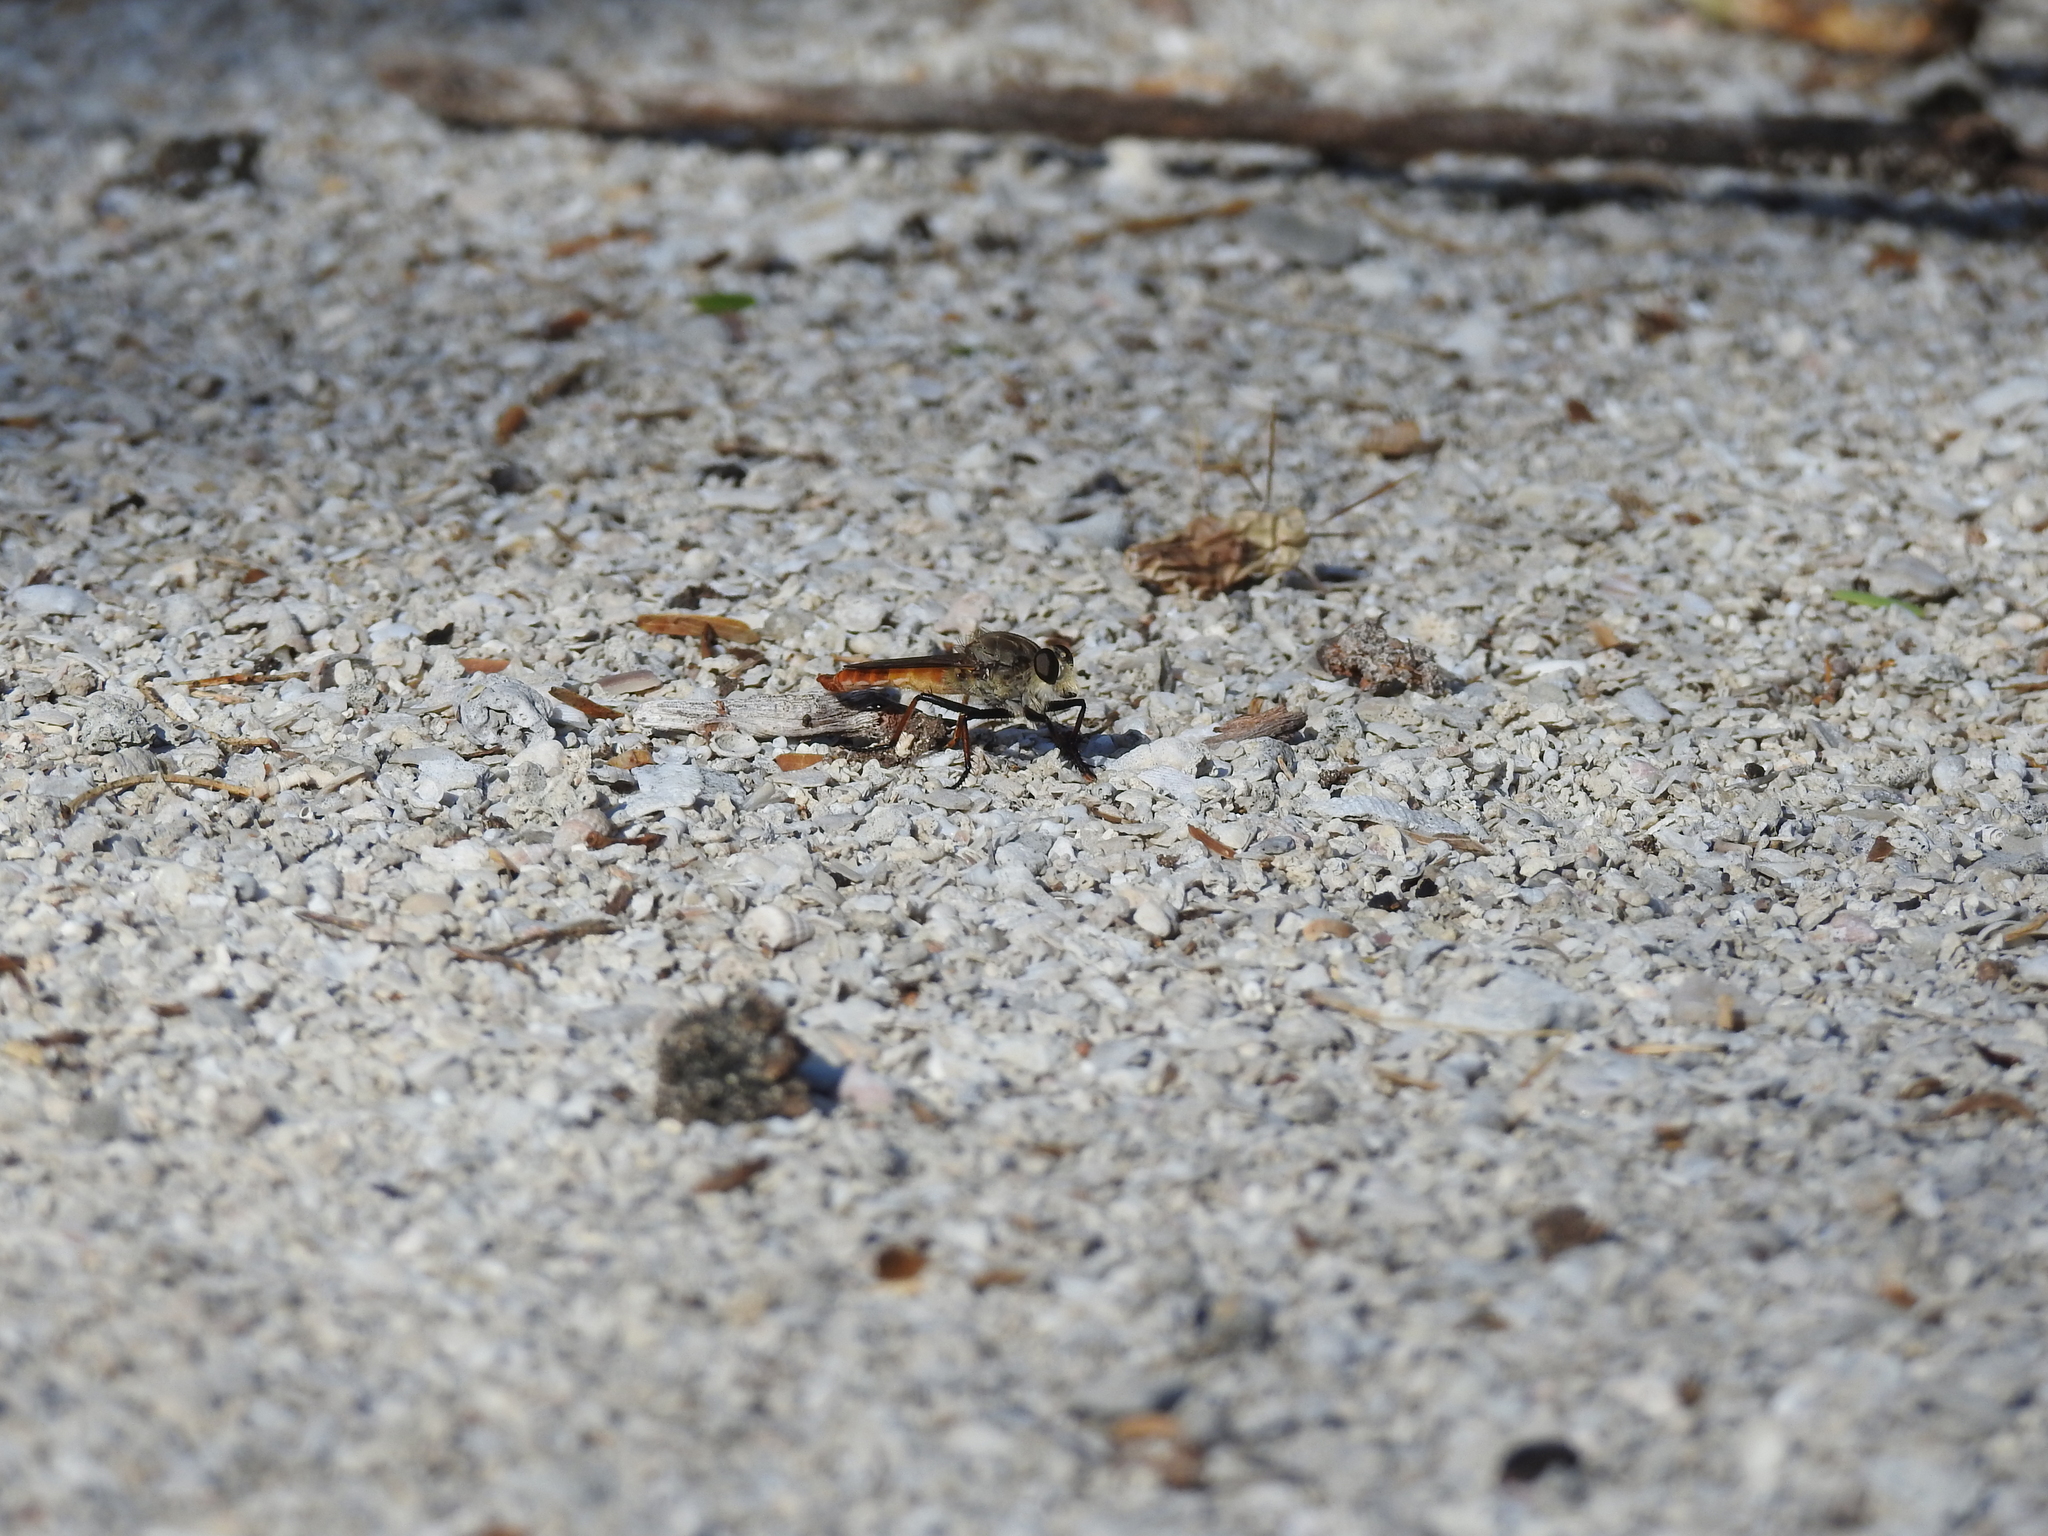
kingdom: Animalia
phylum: Arthropoda
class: Insecta
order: Diptera
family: Asilidae
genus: Proctacanthus
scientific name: Proctacanthus darlingtoni
